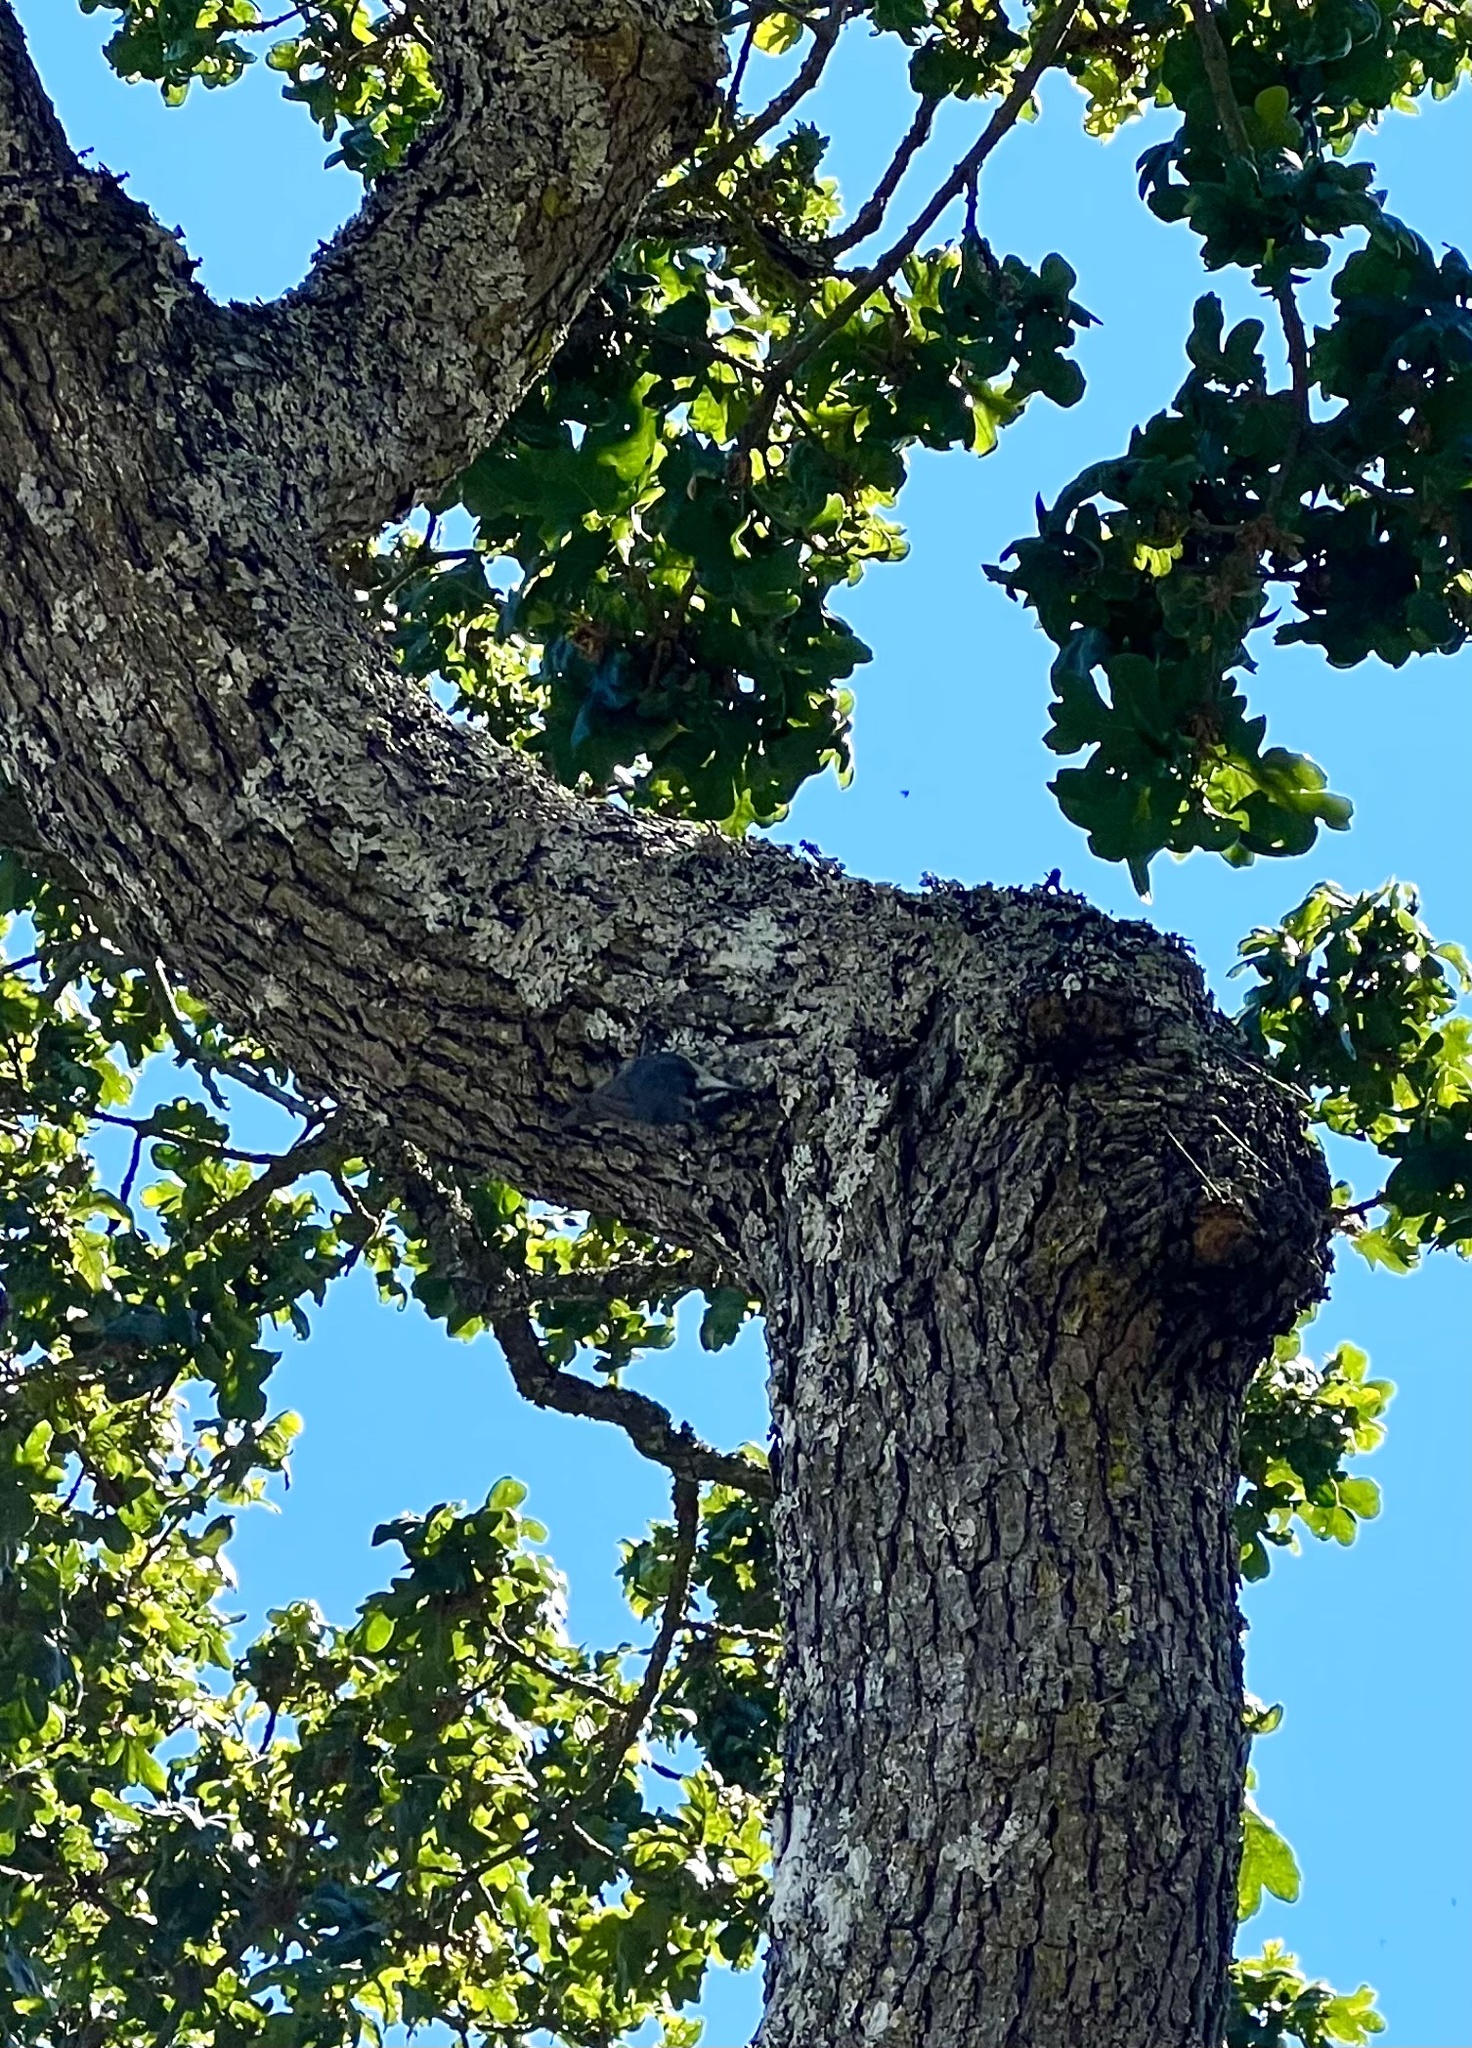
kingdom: Animalia
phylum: Chordata
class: Aves
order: Passeriformes
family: Sittidae
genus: Sitta
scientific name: Sitta canadensis
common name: Red-breasted nuthatch
